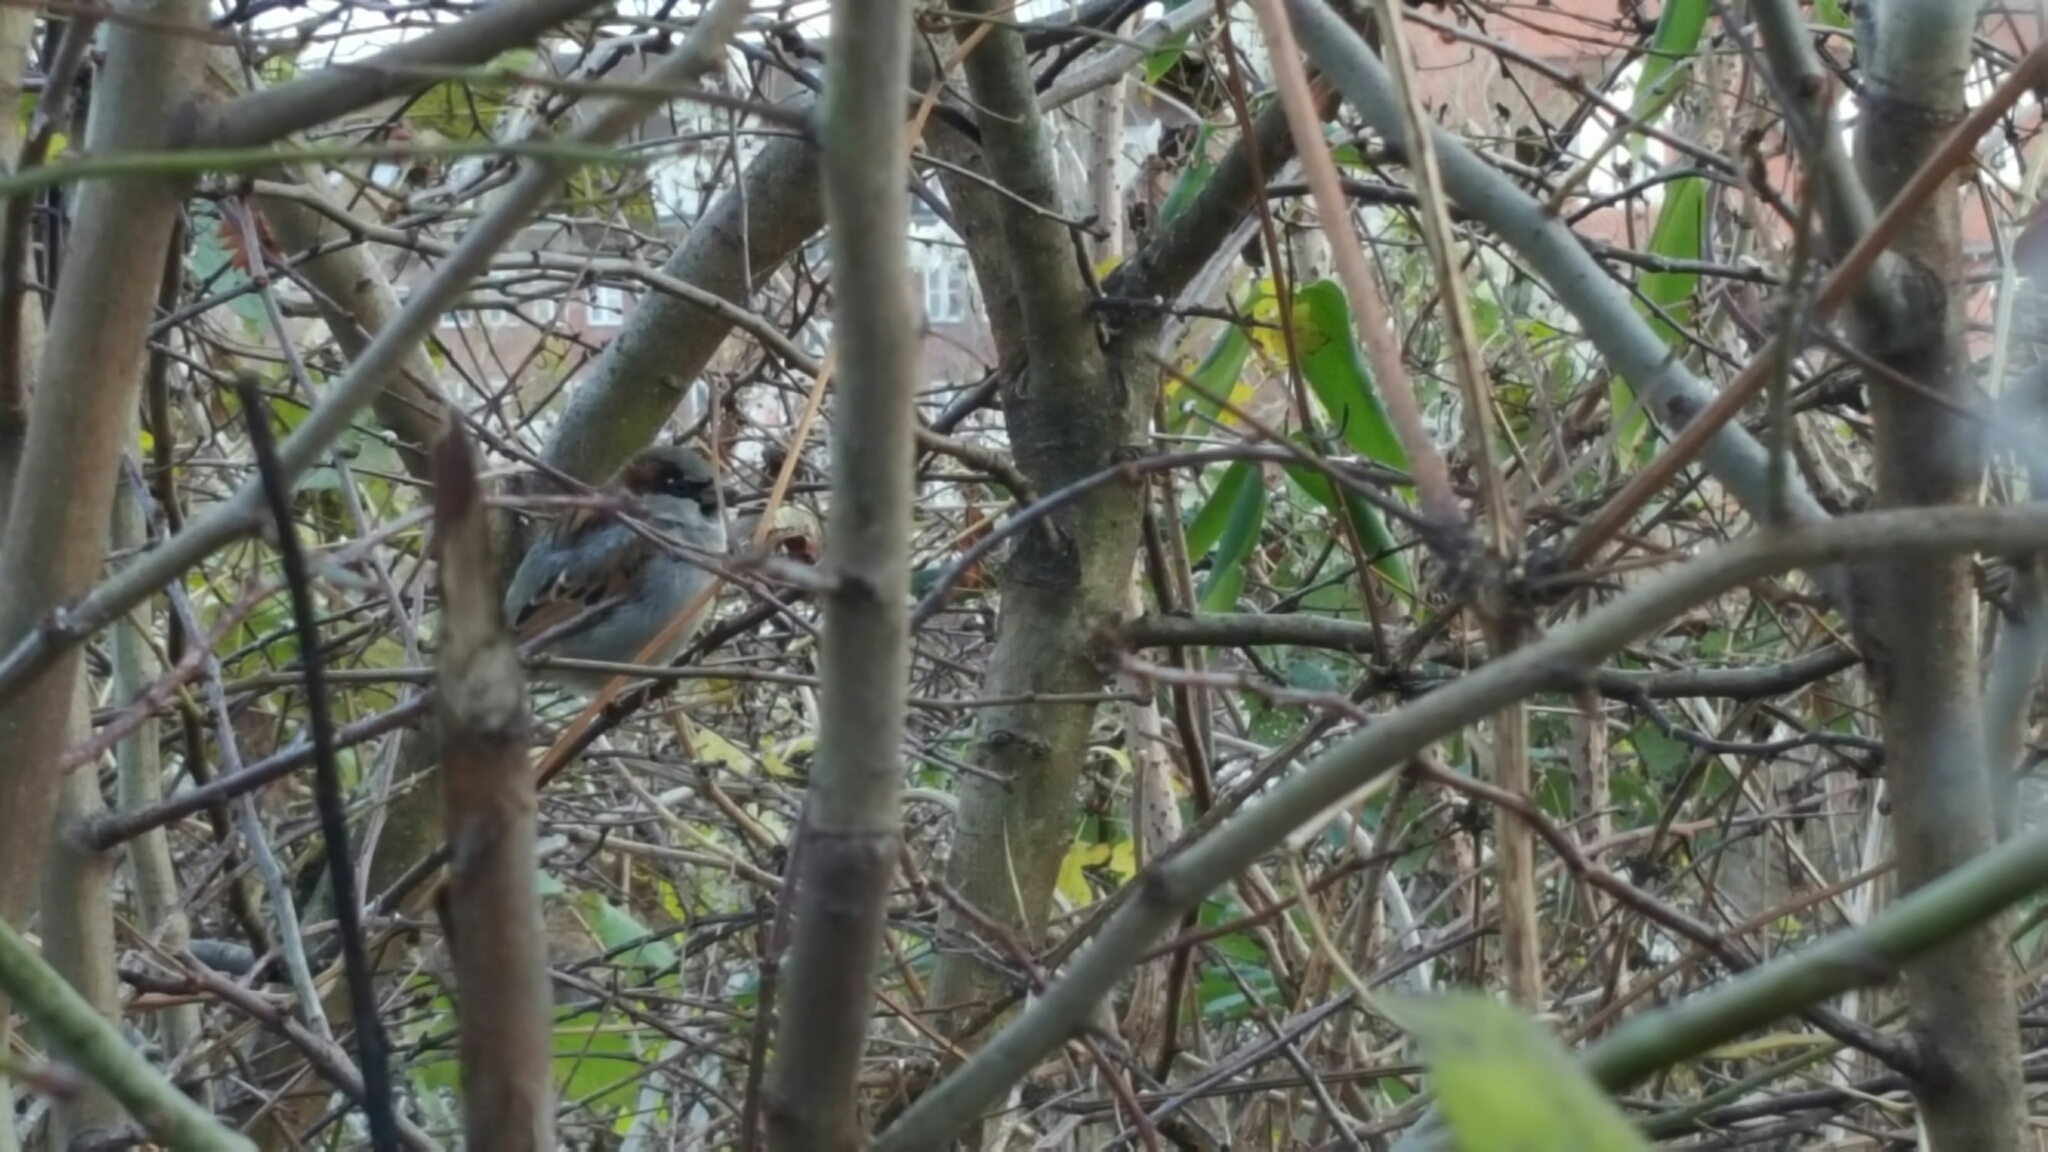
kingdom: Animalia
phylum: Chordata
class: Aves
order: Passeriformes
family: Passeridae
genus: Passer
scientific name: Passer domesticus
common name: House sparrow
